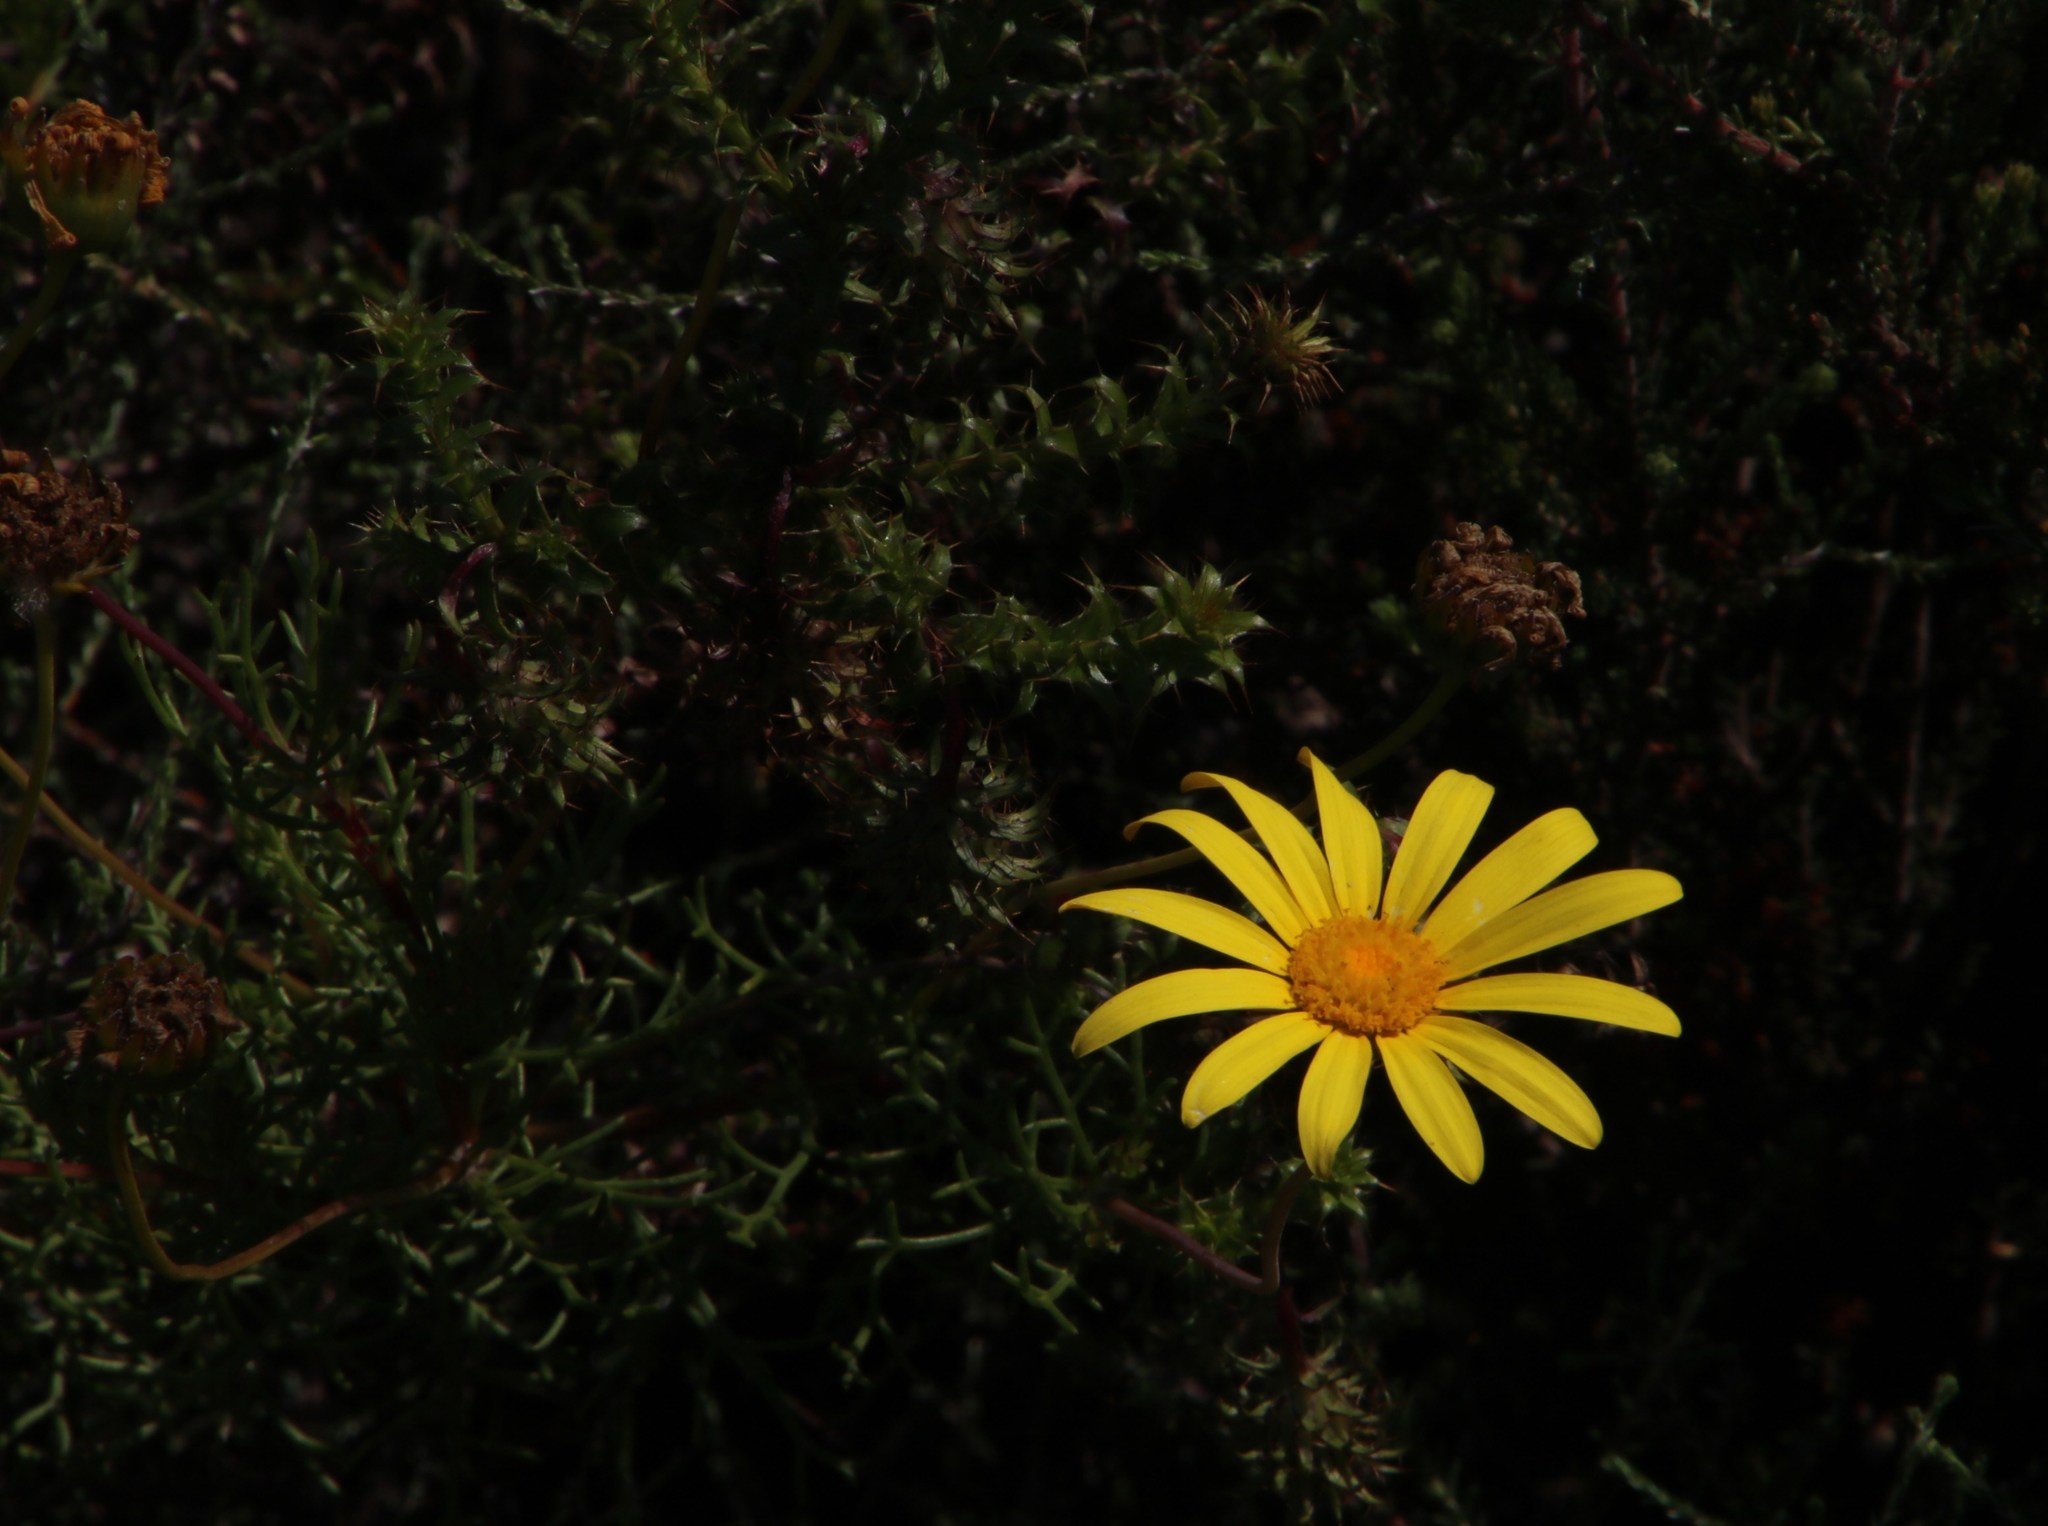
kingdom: Plantae
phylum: Tracheophyta
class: Magnoliopsida
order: Asterales
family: Asteraceae
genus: Cullumia
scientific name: Cullumia setosa
